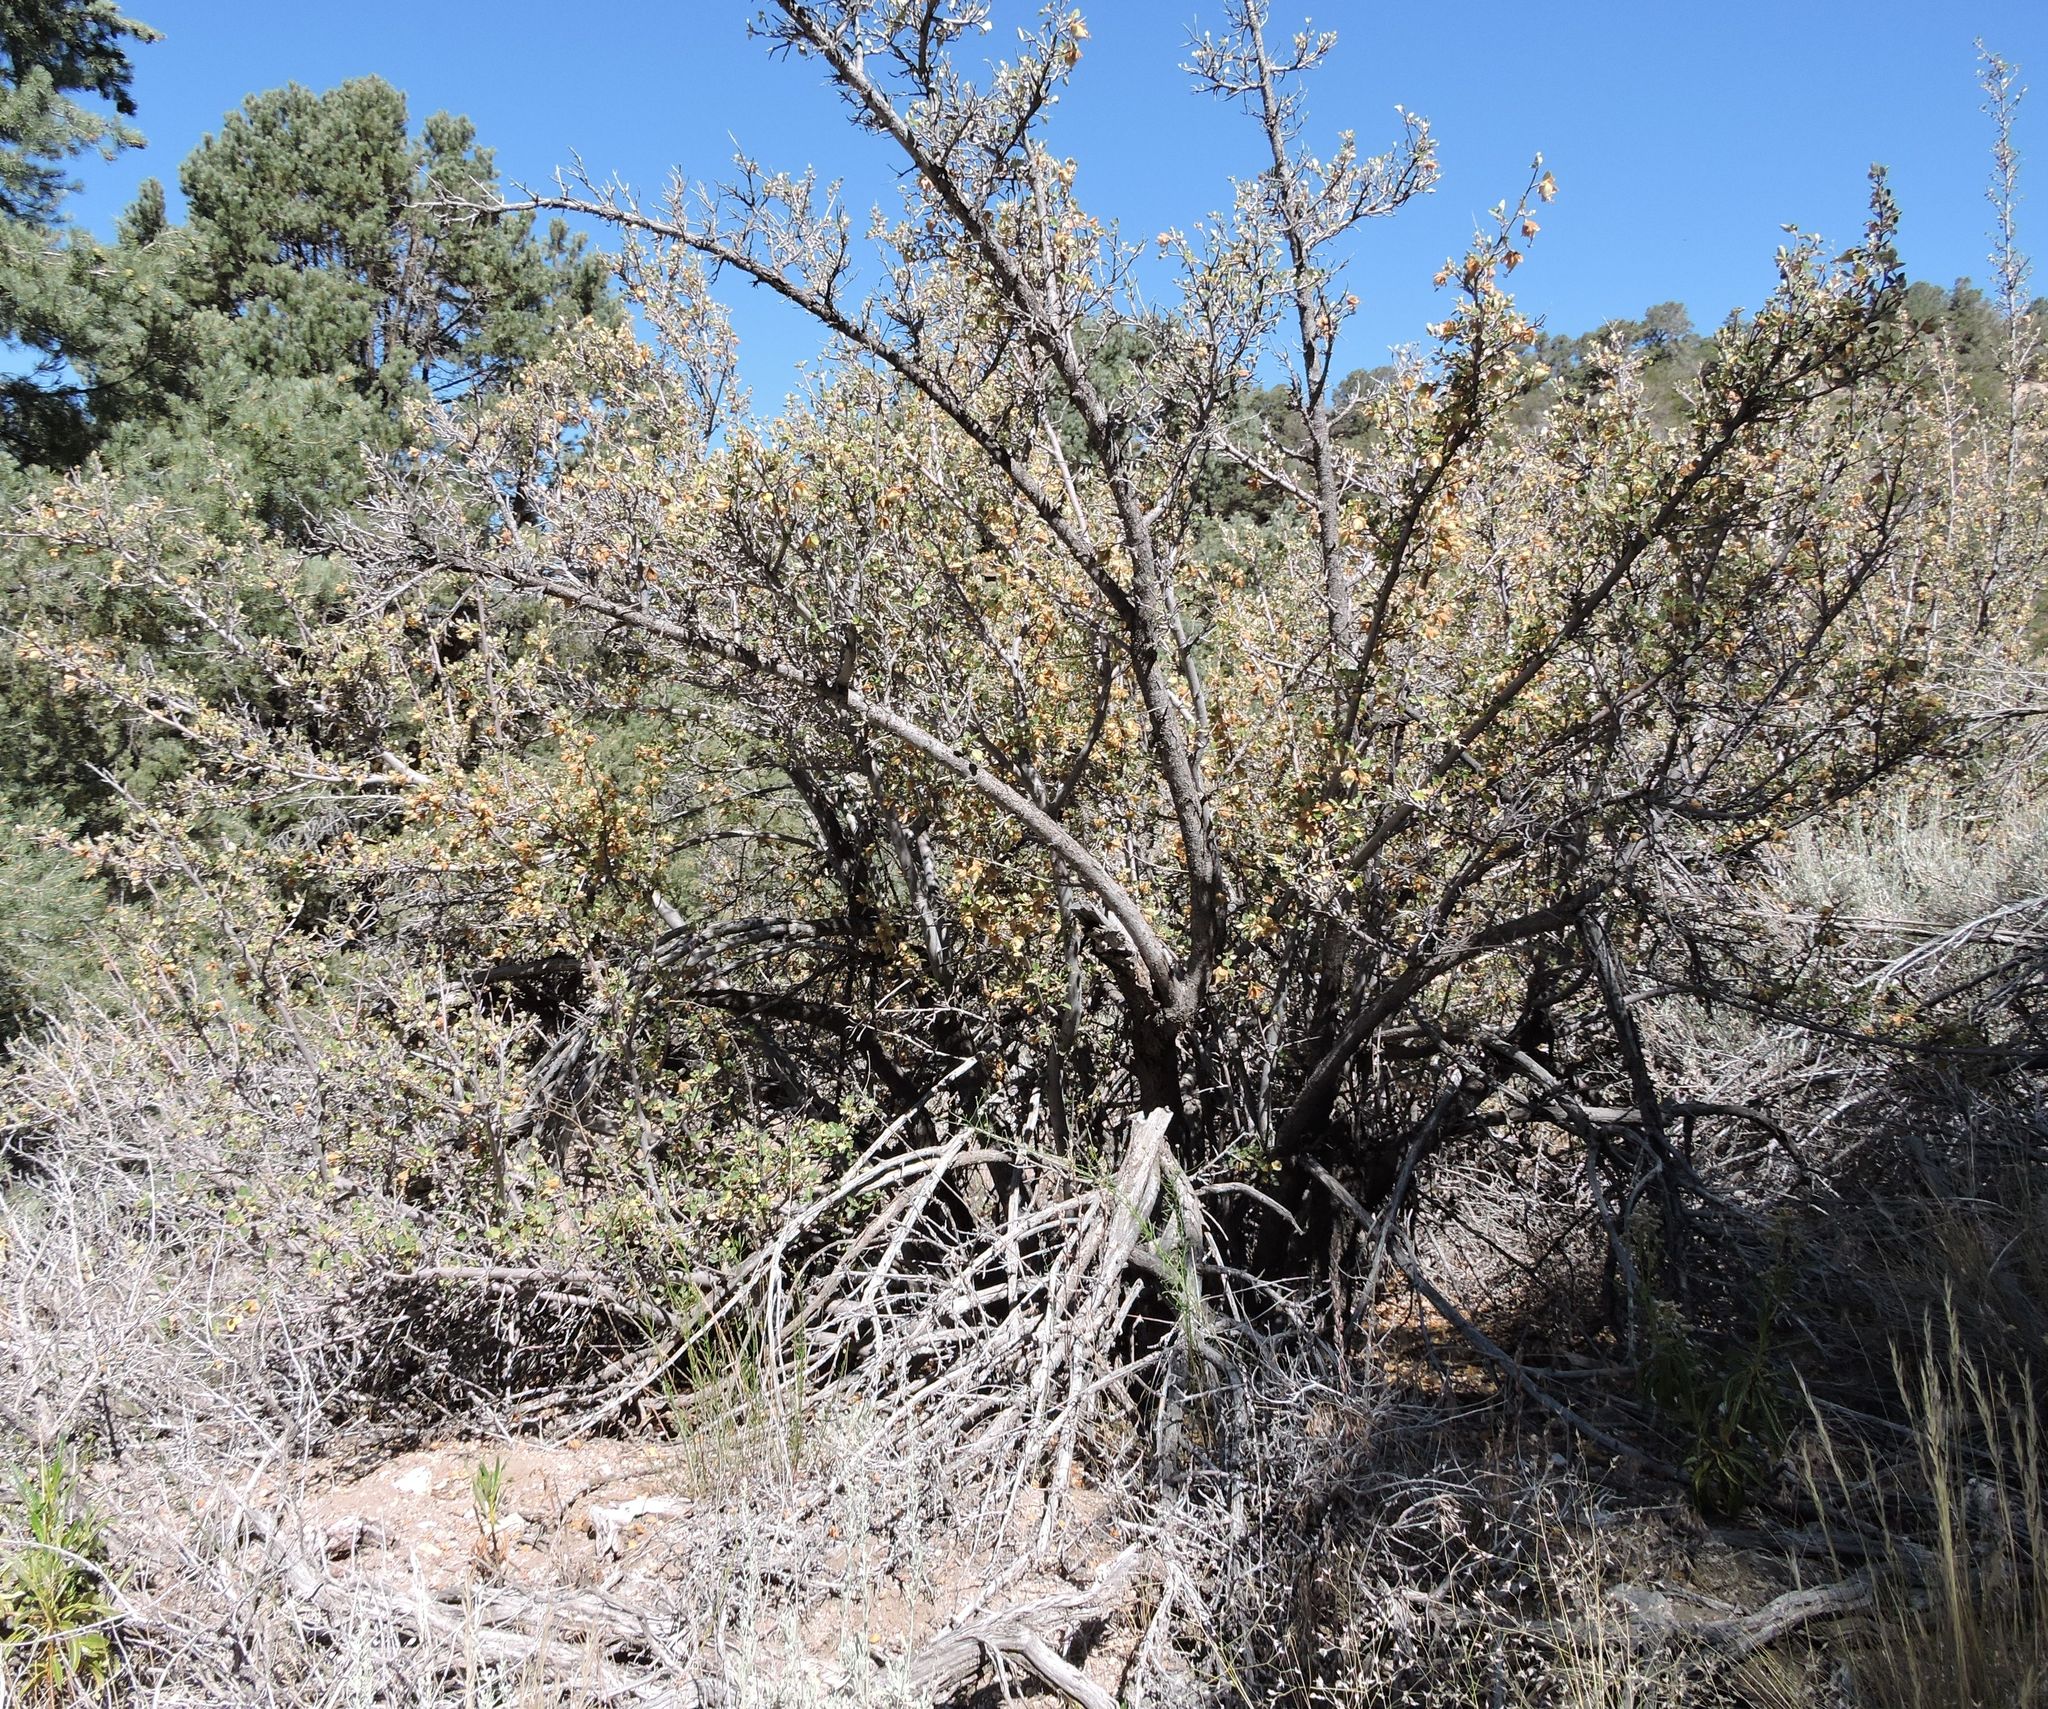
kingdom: Plantae
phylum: Tracheophyta
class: Magnoliopsida
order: Malvales
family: Malvaceae
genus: Fremontodendron
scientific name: Fremontodendron californicum
